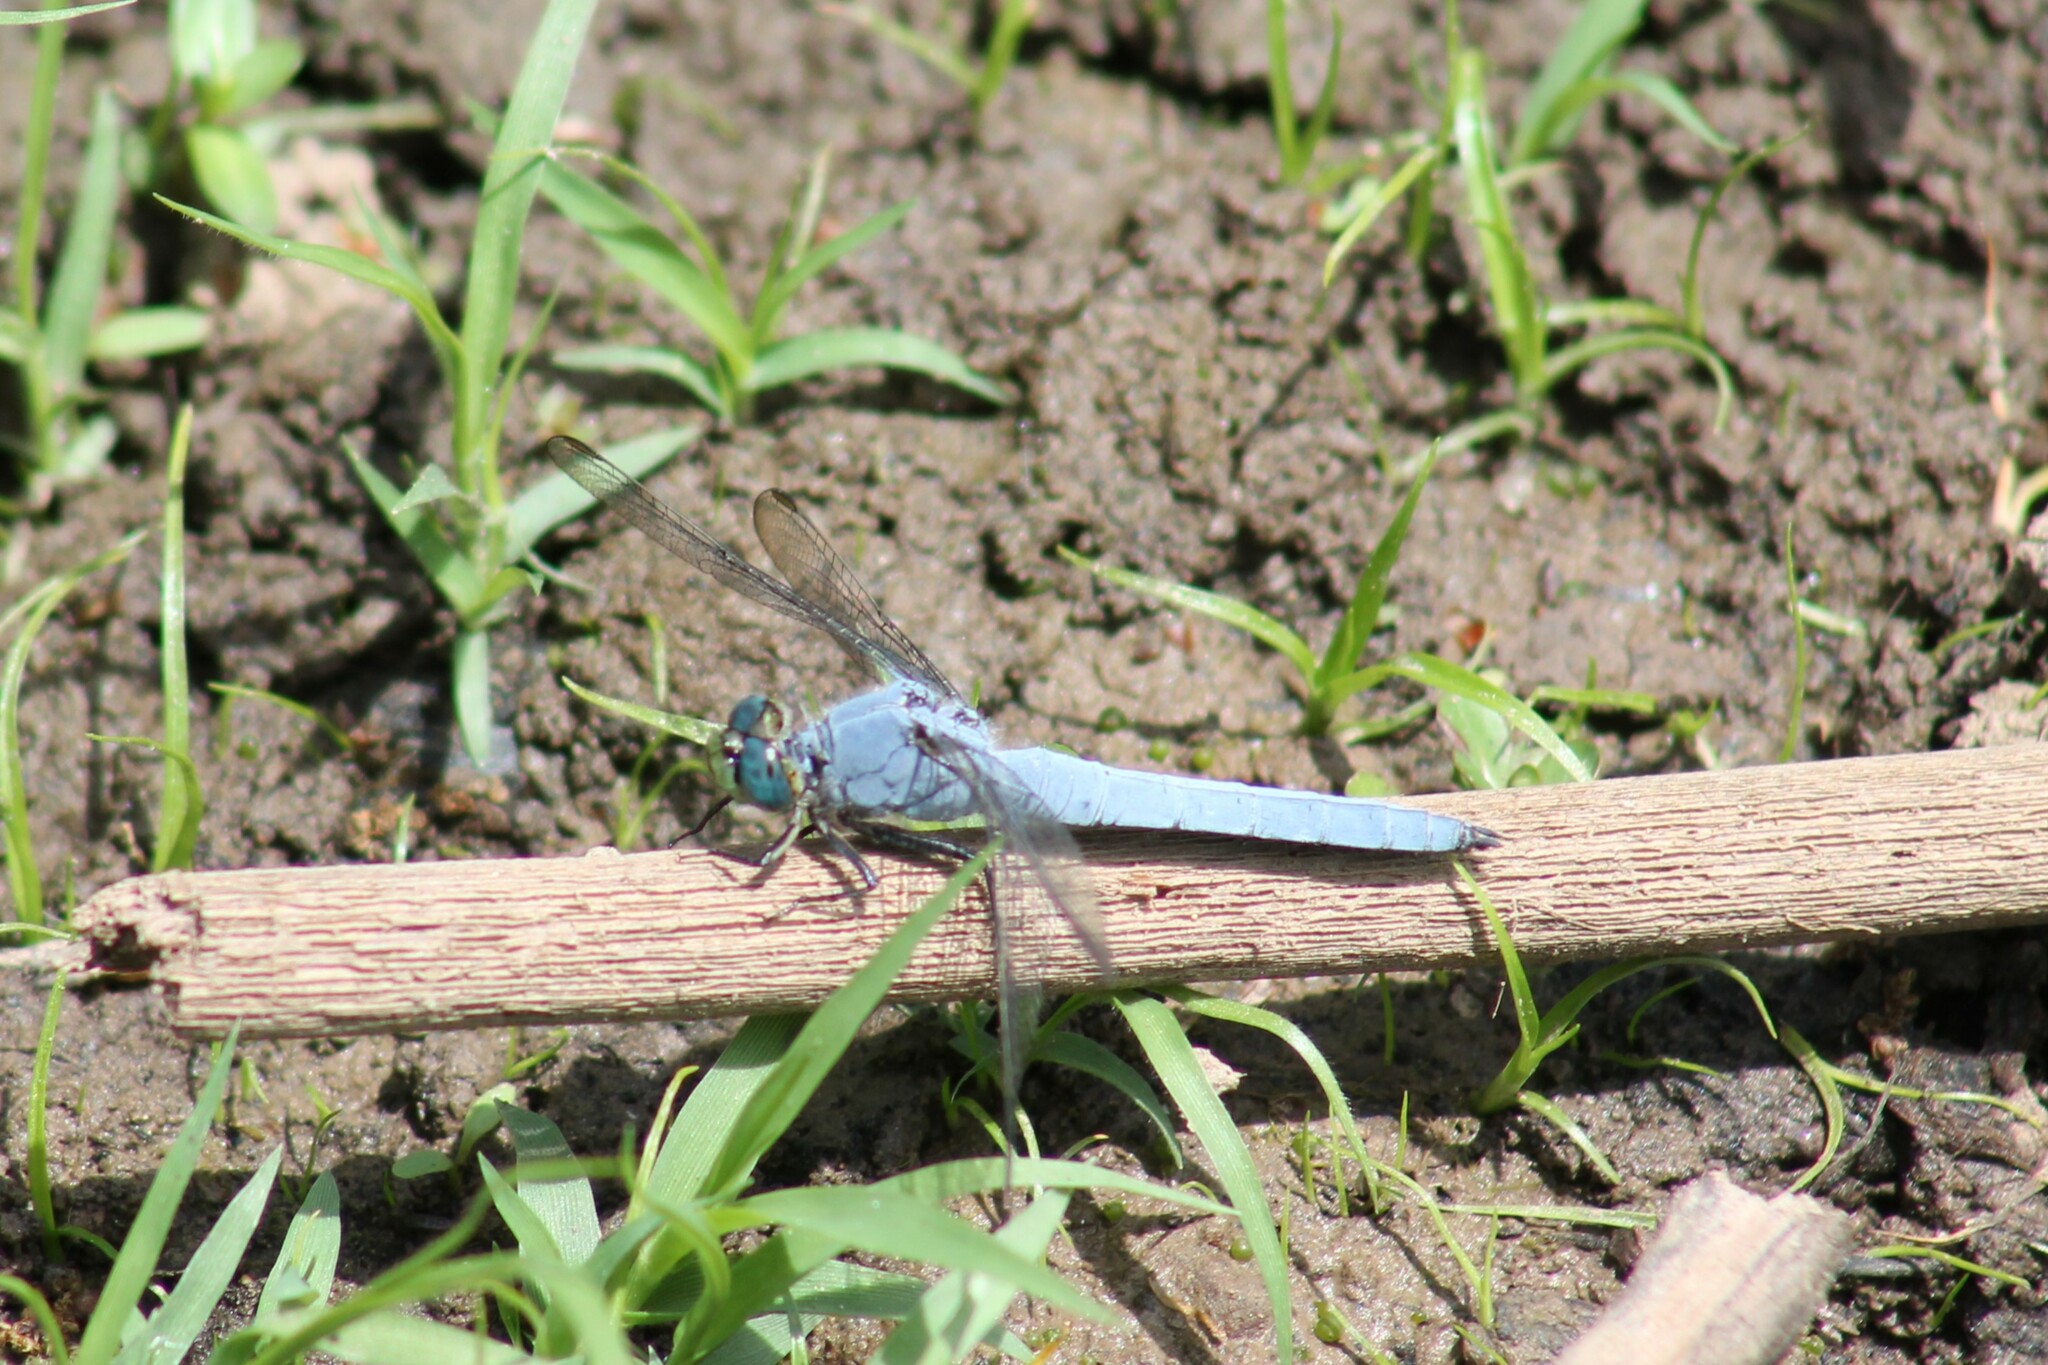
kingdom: Animalia
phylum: Arthropoda
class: Insecta
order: Odonata
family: Libellulidae
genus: Erythemis
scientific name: Erythemis collocata
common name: Western pondhawk
